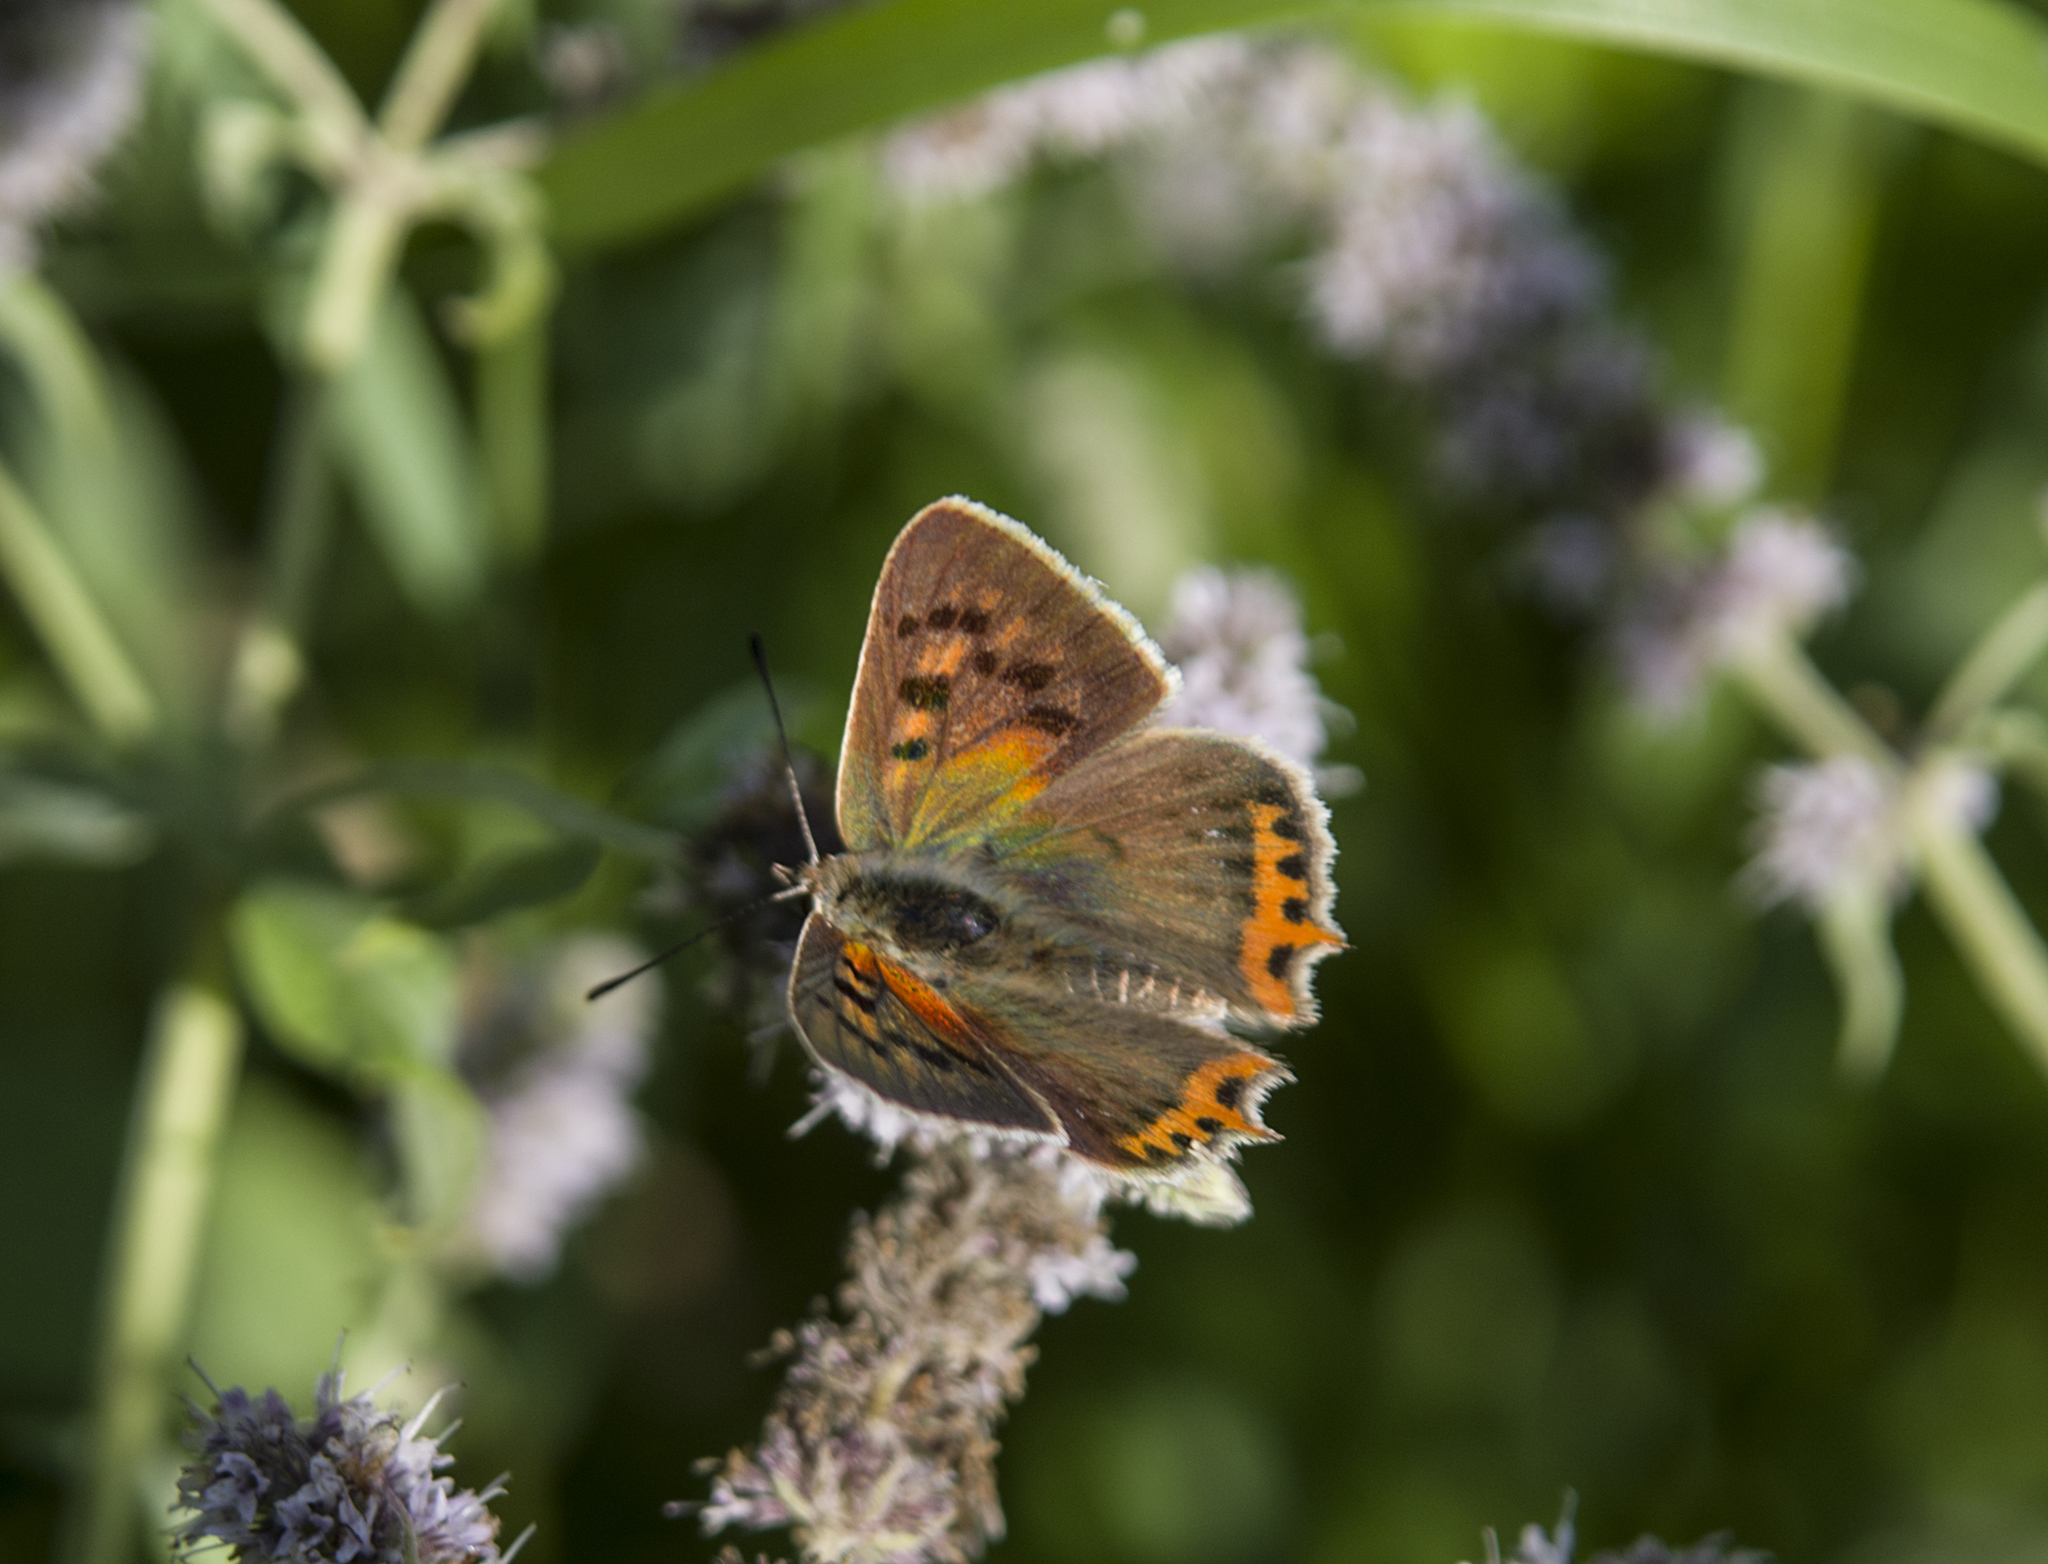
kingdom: Animalia
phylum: Arthropoda
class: Insecta
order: Lepidoptera
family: Lycaenidae
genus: Lycaena
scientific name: Lycaena phlaeas
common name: Small copper
